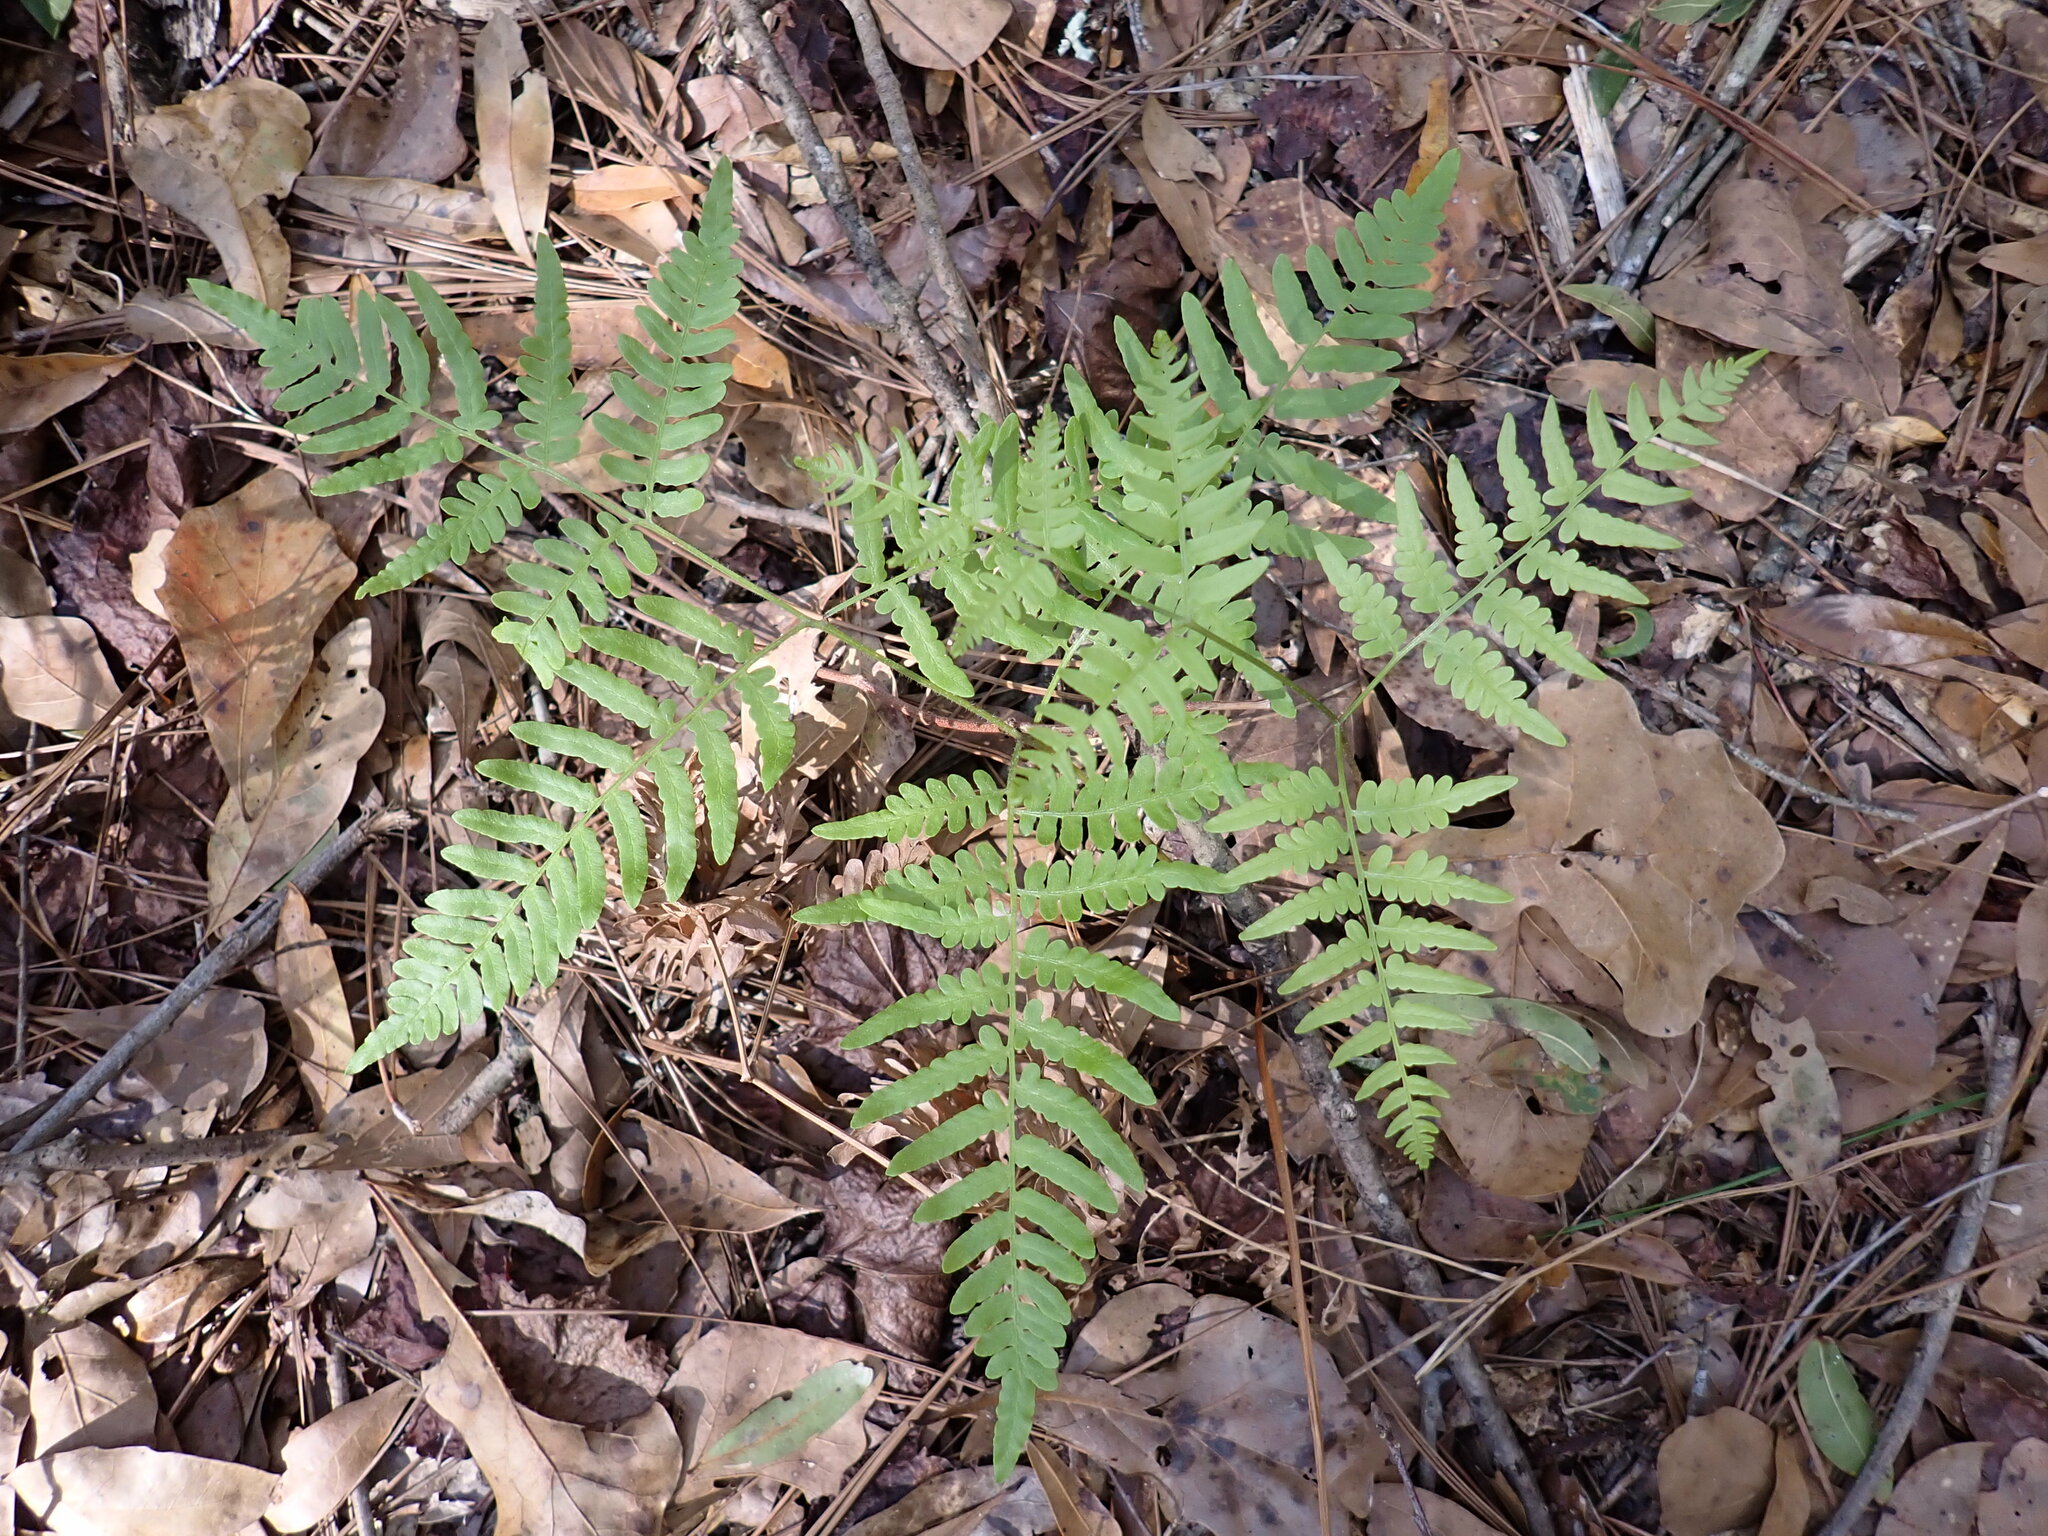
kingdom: Plantae
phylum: Tracheophyta
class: Polypodiopsida
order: Polypodiales
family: Dennstaedtiaceae
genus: Pteridium
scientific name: Pteridium aquilinum
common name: Bracken
